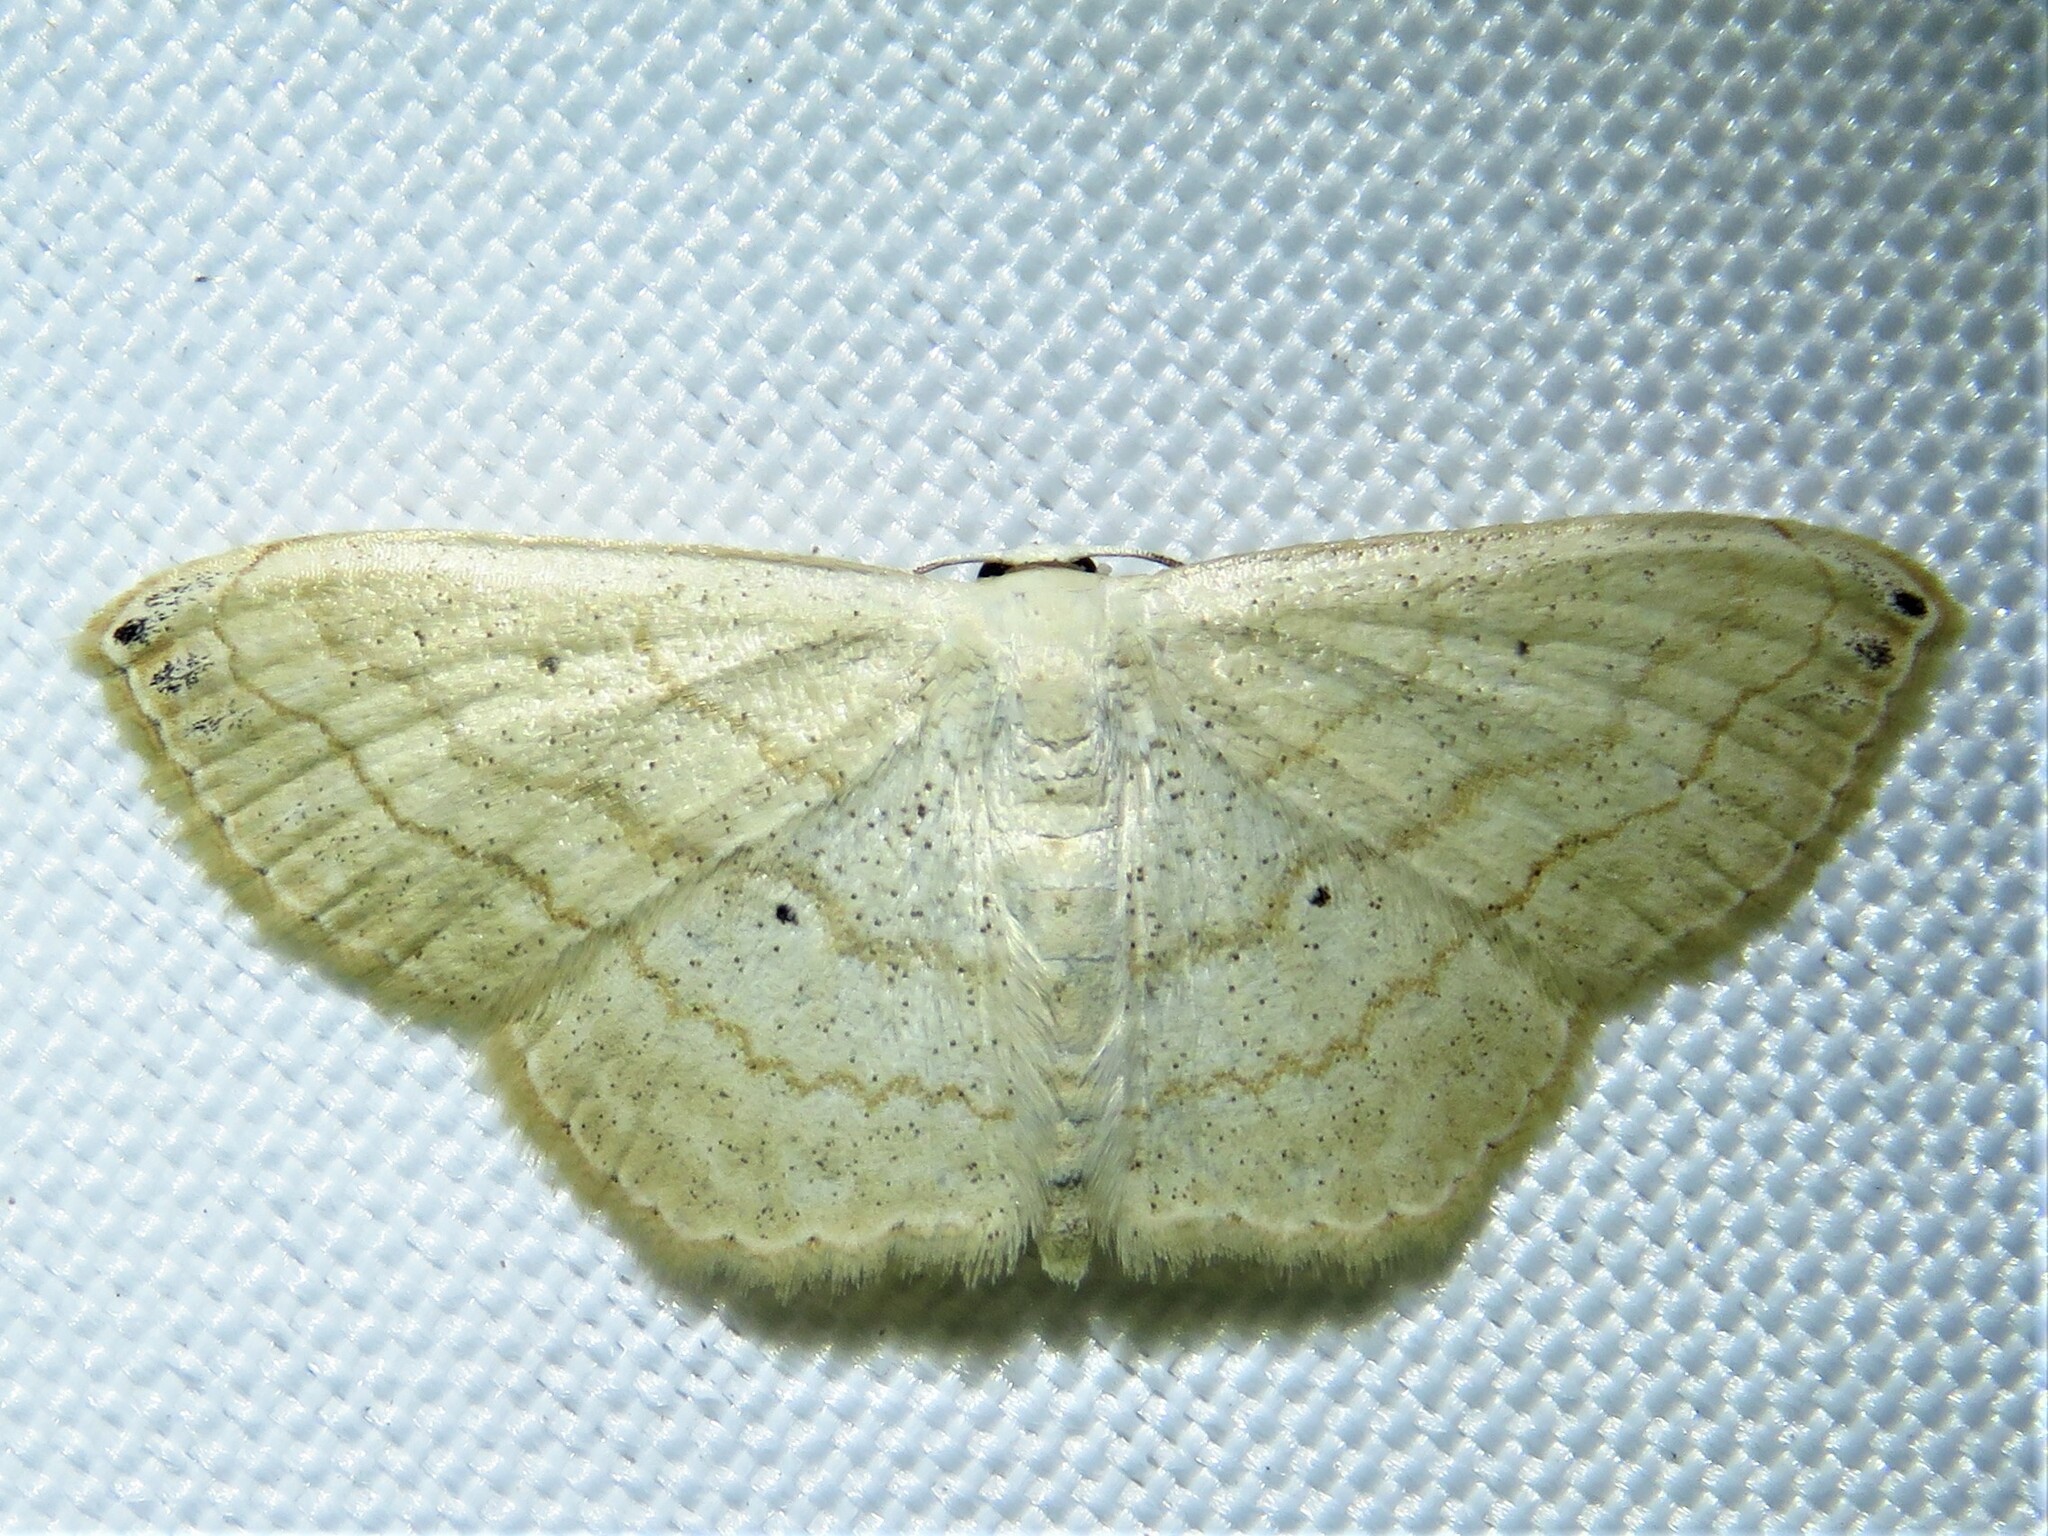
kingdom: Animalia
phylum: Arthropoda
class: Insecta
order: Lepidoptera
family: Geometridae
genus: Scopula
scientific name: Scopula umbilicata
